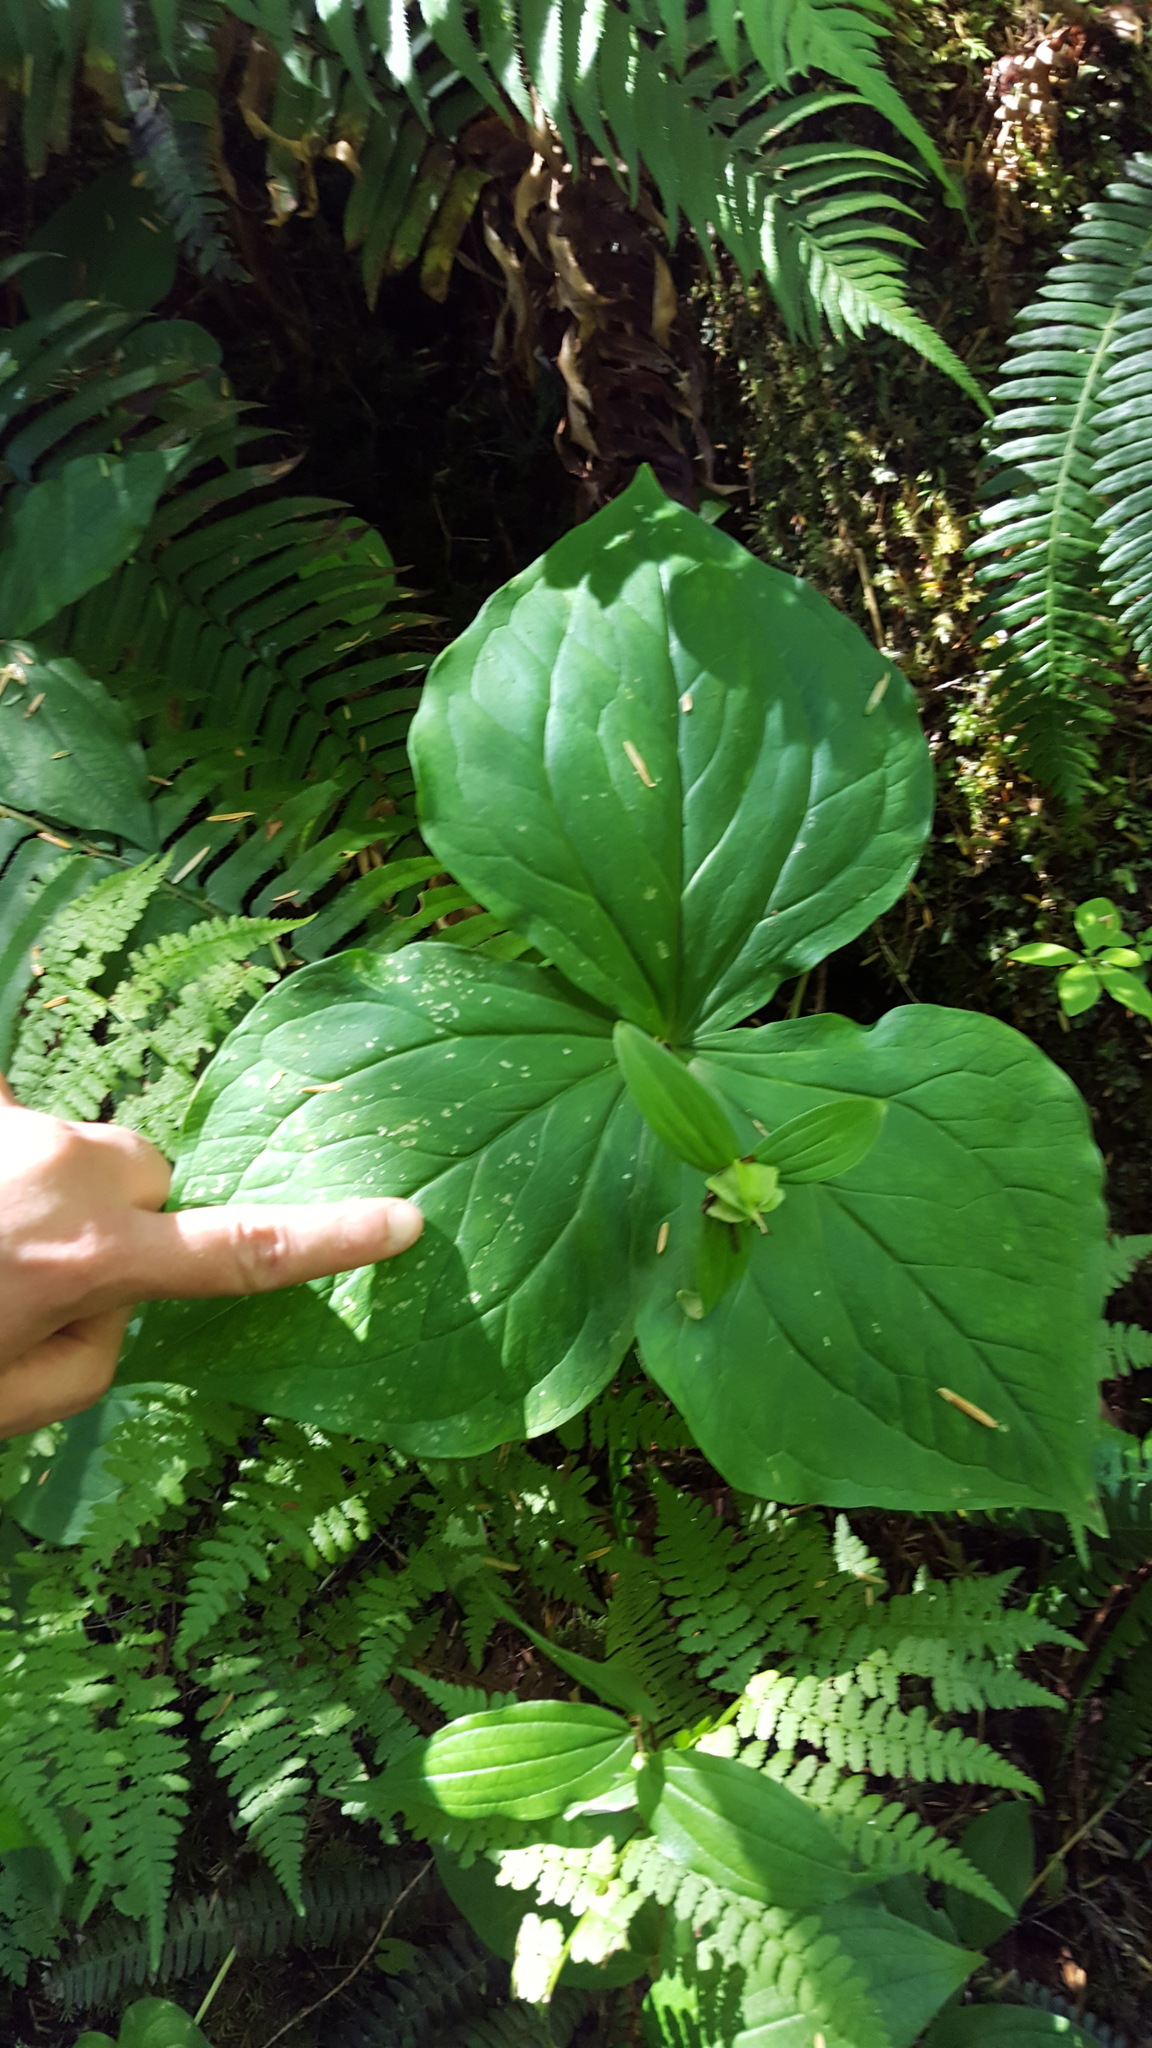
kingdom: Plantae
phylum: Tracheophyta
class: Liliopsida
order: Liliales
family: Melanthiaceae
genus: Trillium
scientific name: Trillium ovatum
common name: Pacific trillium
